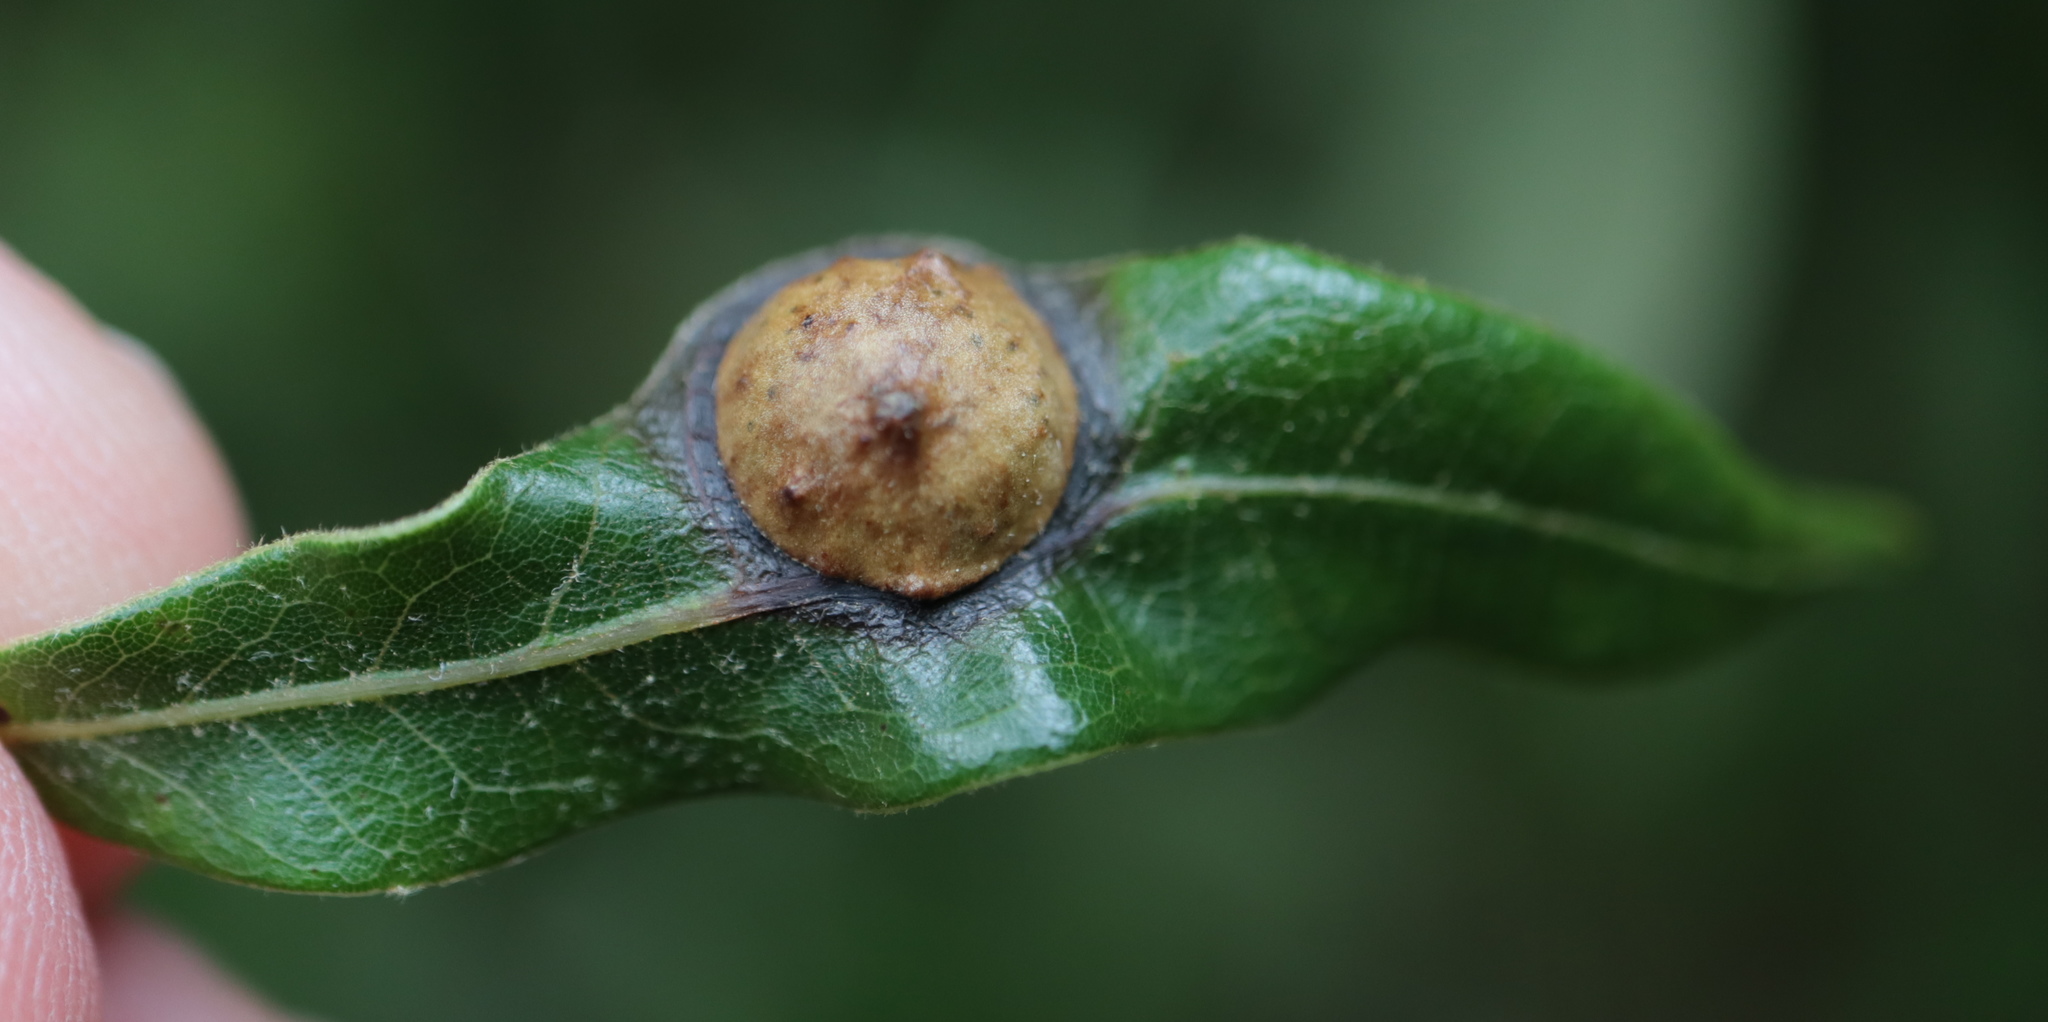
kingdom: Animalia
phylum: Arthropoda
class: Insecta
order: Hymenoptera
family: Cynipidae
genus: Amphibolips
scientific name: Amphibolips
